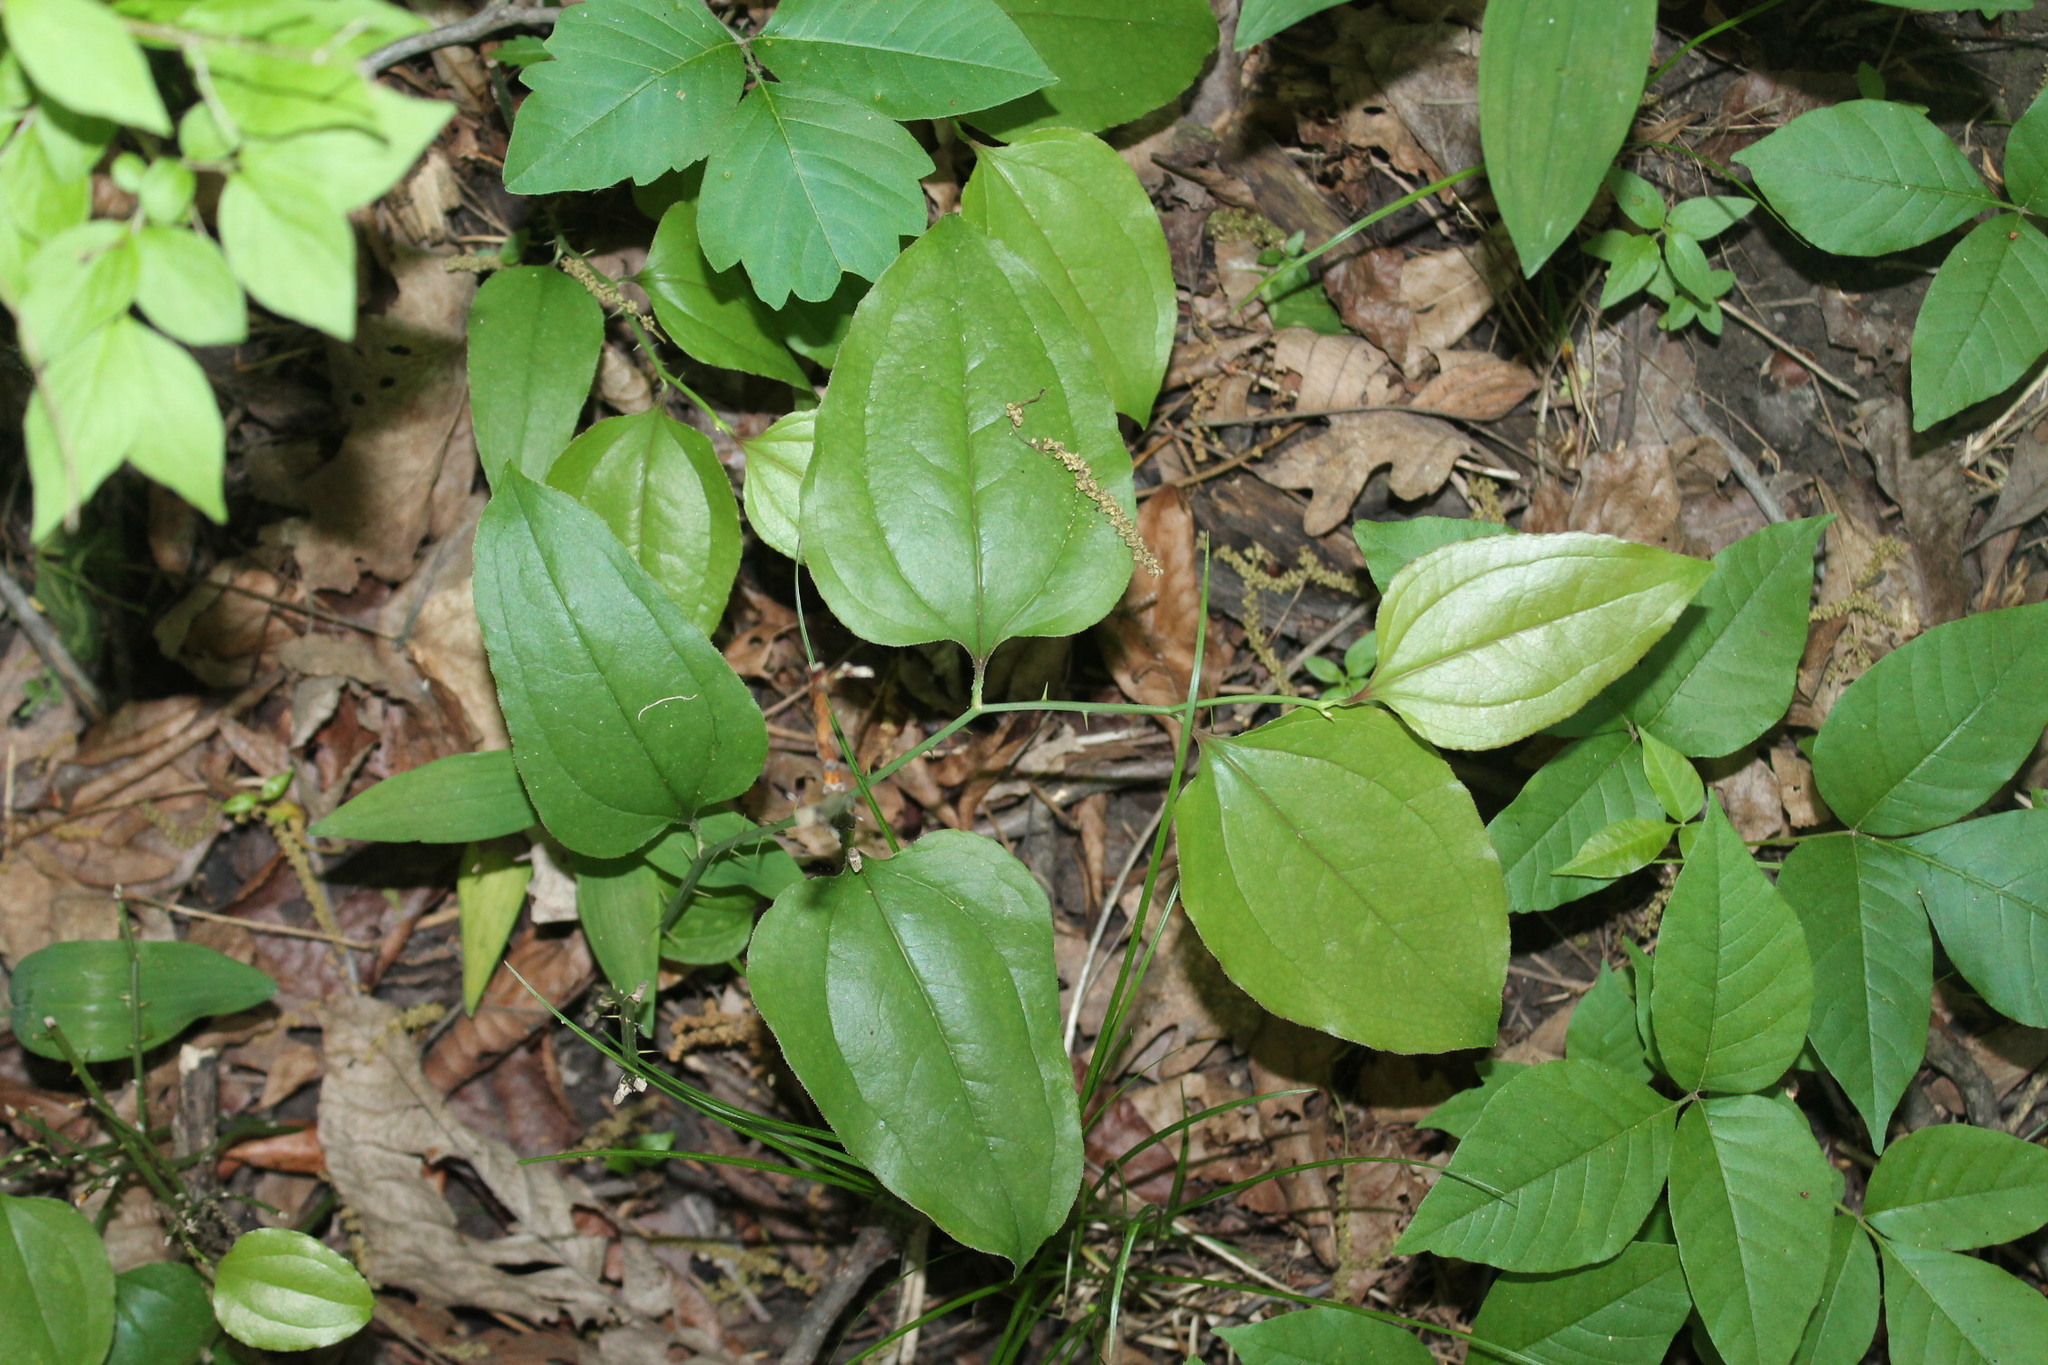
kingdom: Plantae
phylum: Tracheophyta
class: Liliopsida
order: Liliales
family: Smilacaceae
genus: Smilax
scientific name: Smilax tamnoides
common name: Hellfetter
